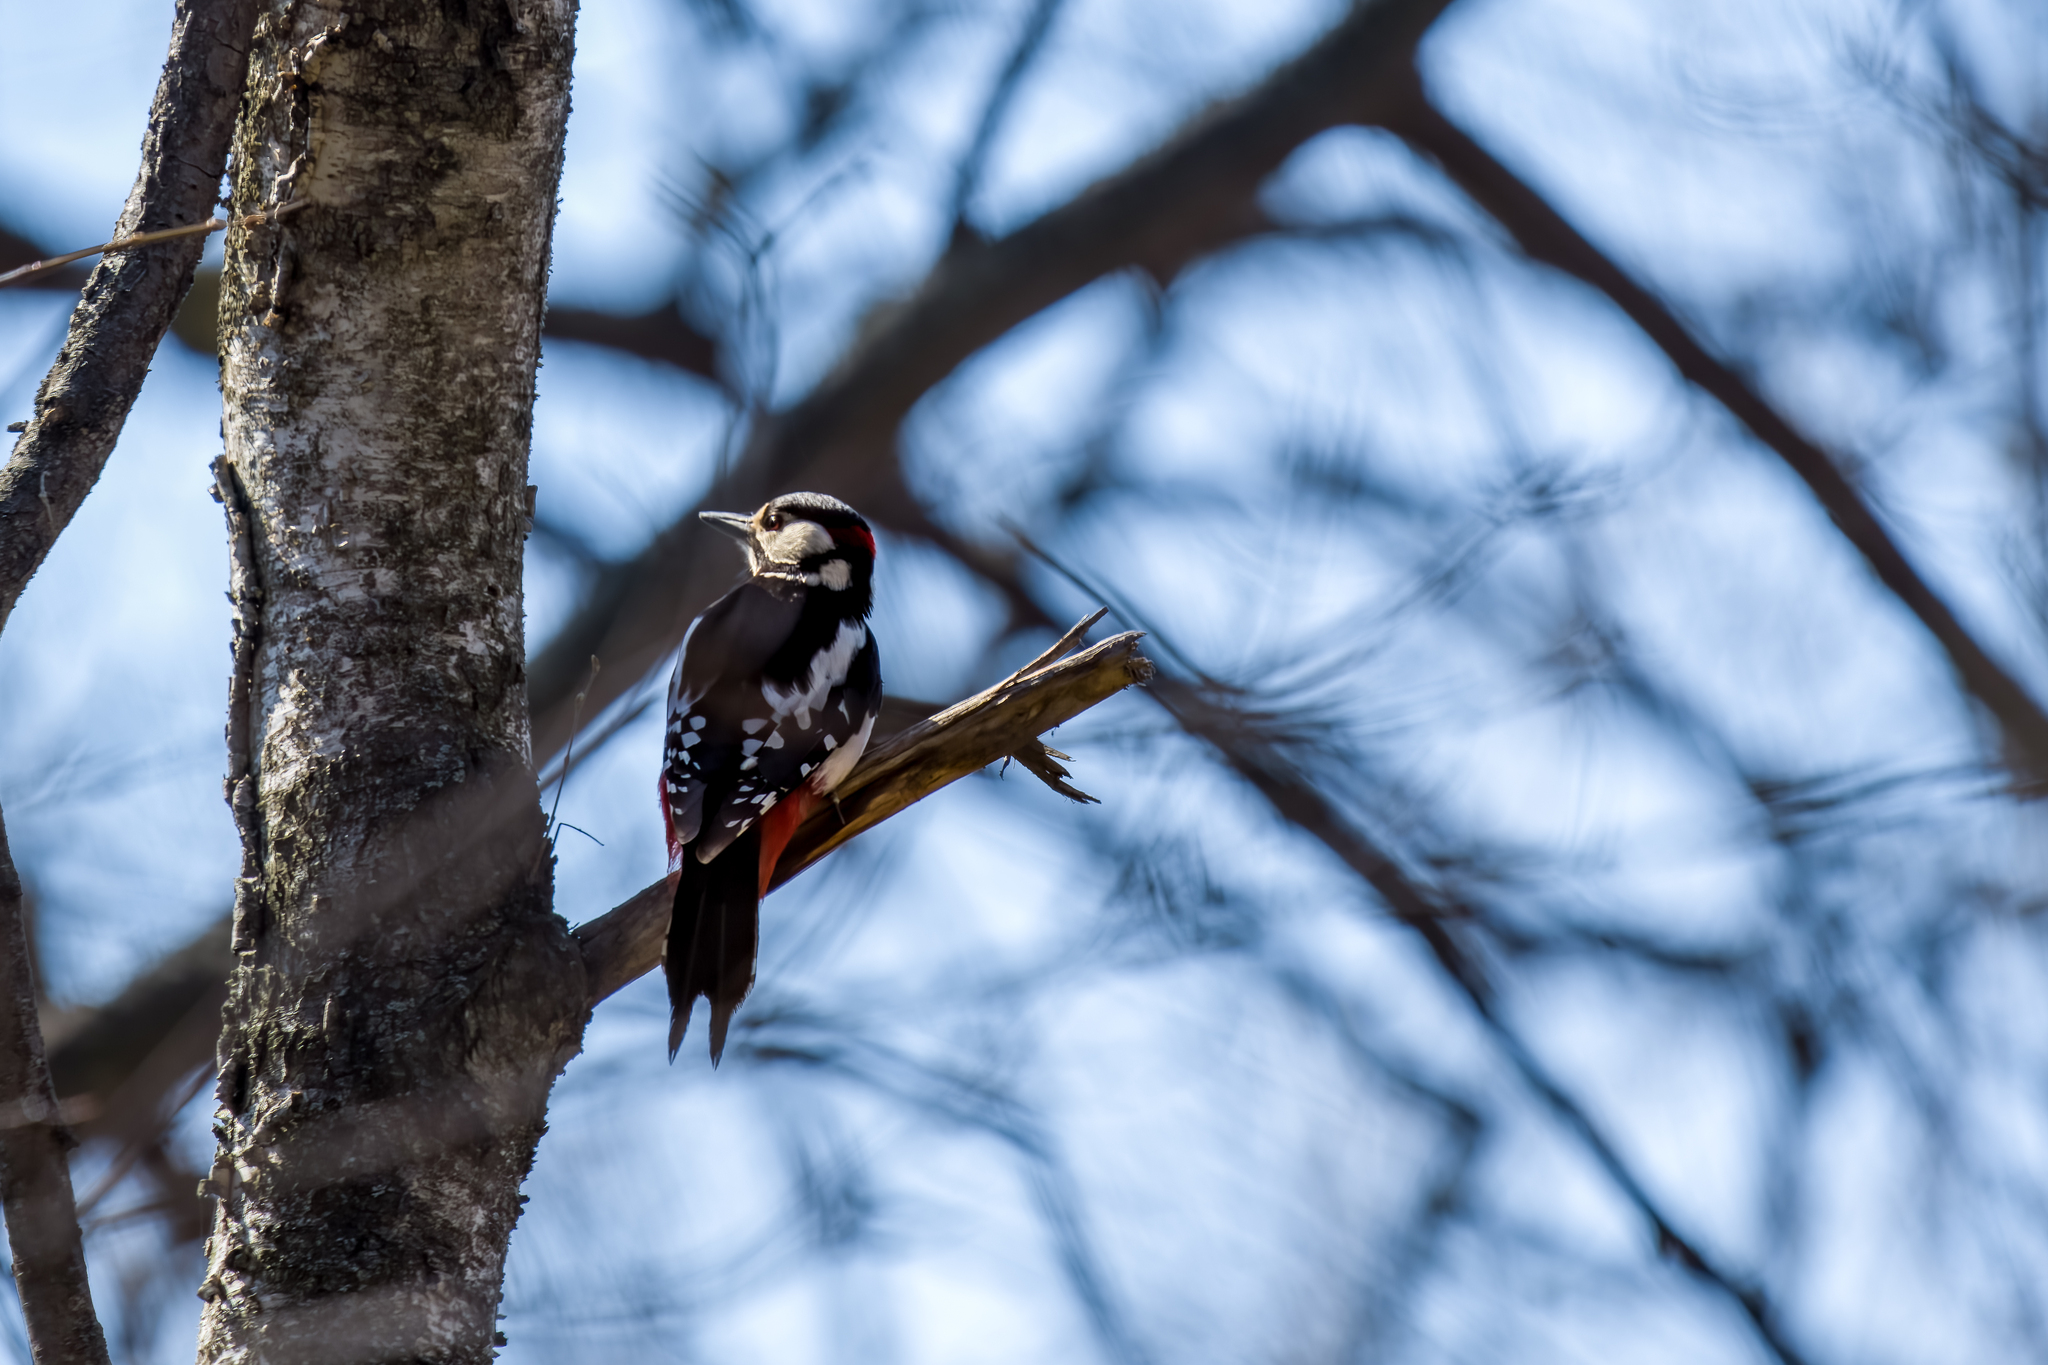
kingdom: Animalia
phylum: Chordata
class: Aves
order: Piciformes
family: Picidae
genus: Dendrocopos
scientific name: Dendrocopos major
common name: Great spotted woodpecker
